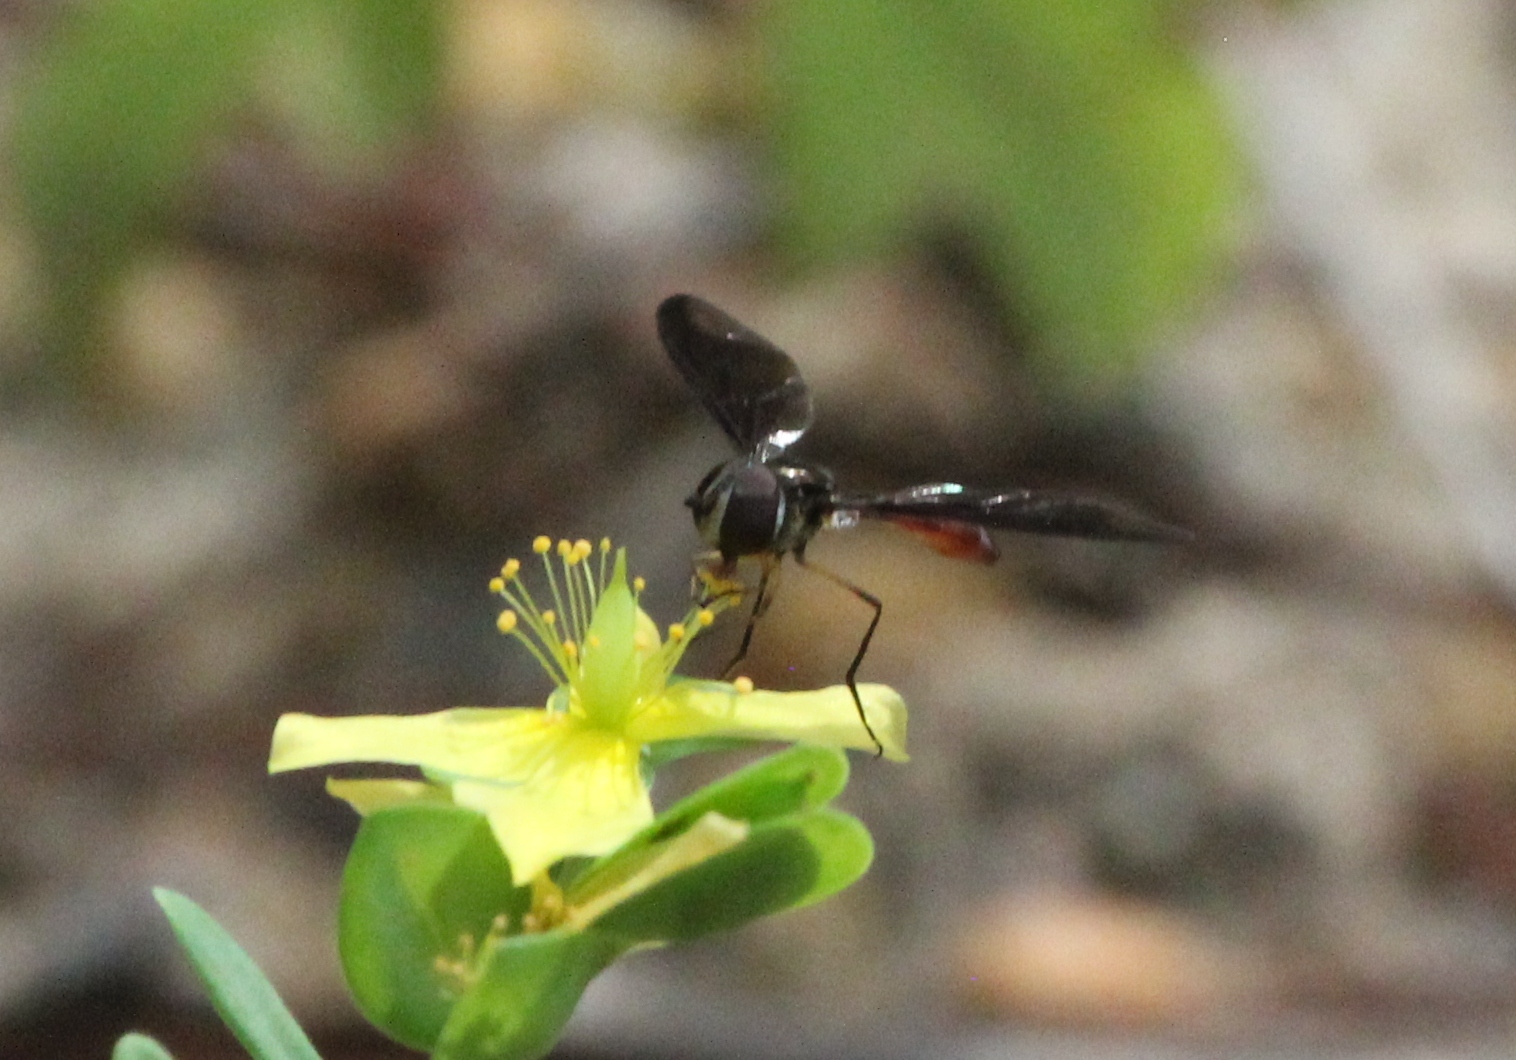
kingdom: Animalia
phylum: Arthropoda
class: Insecta
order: Diptera
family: Syrphidae
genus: Ocyptamus
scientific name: Ocyptamus fuscipennis
